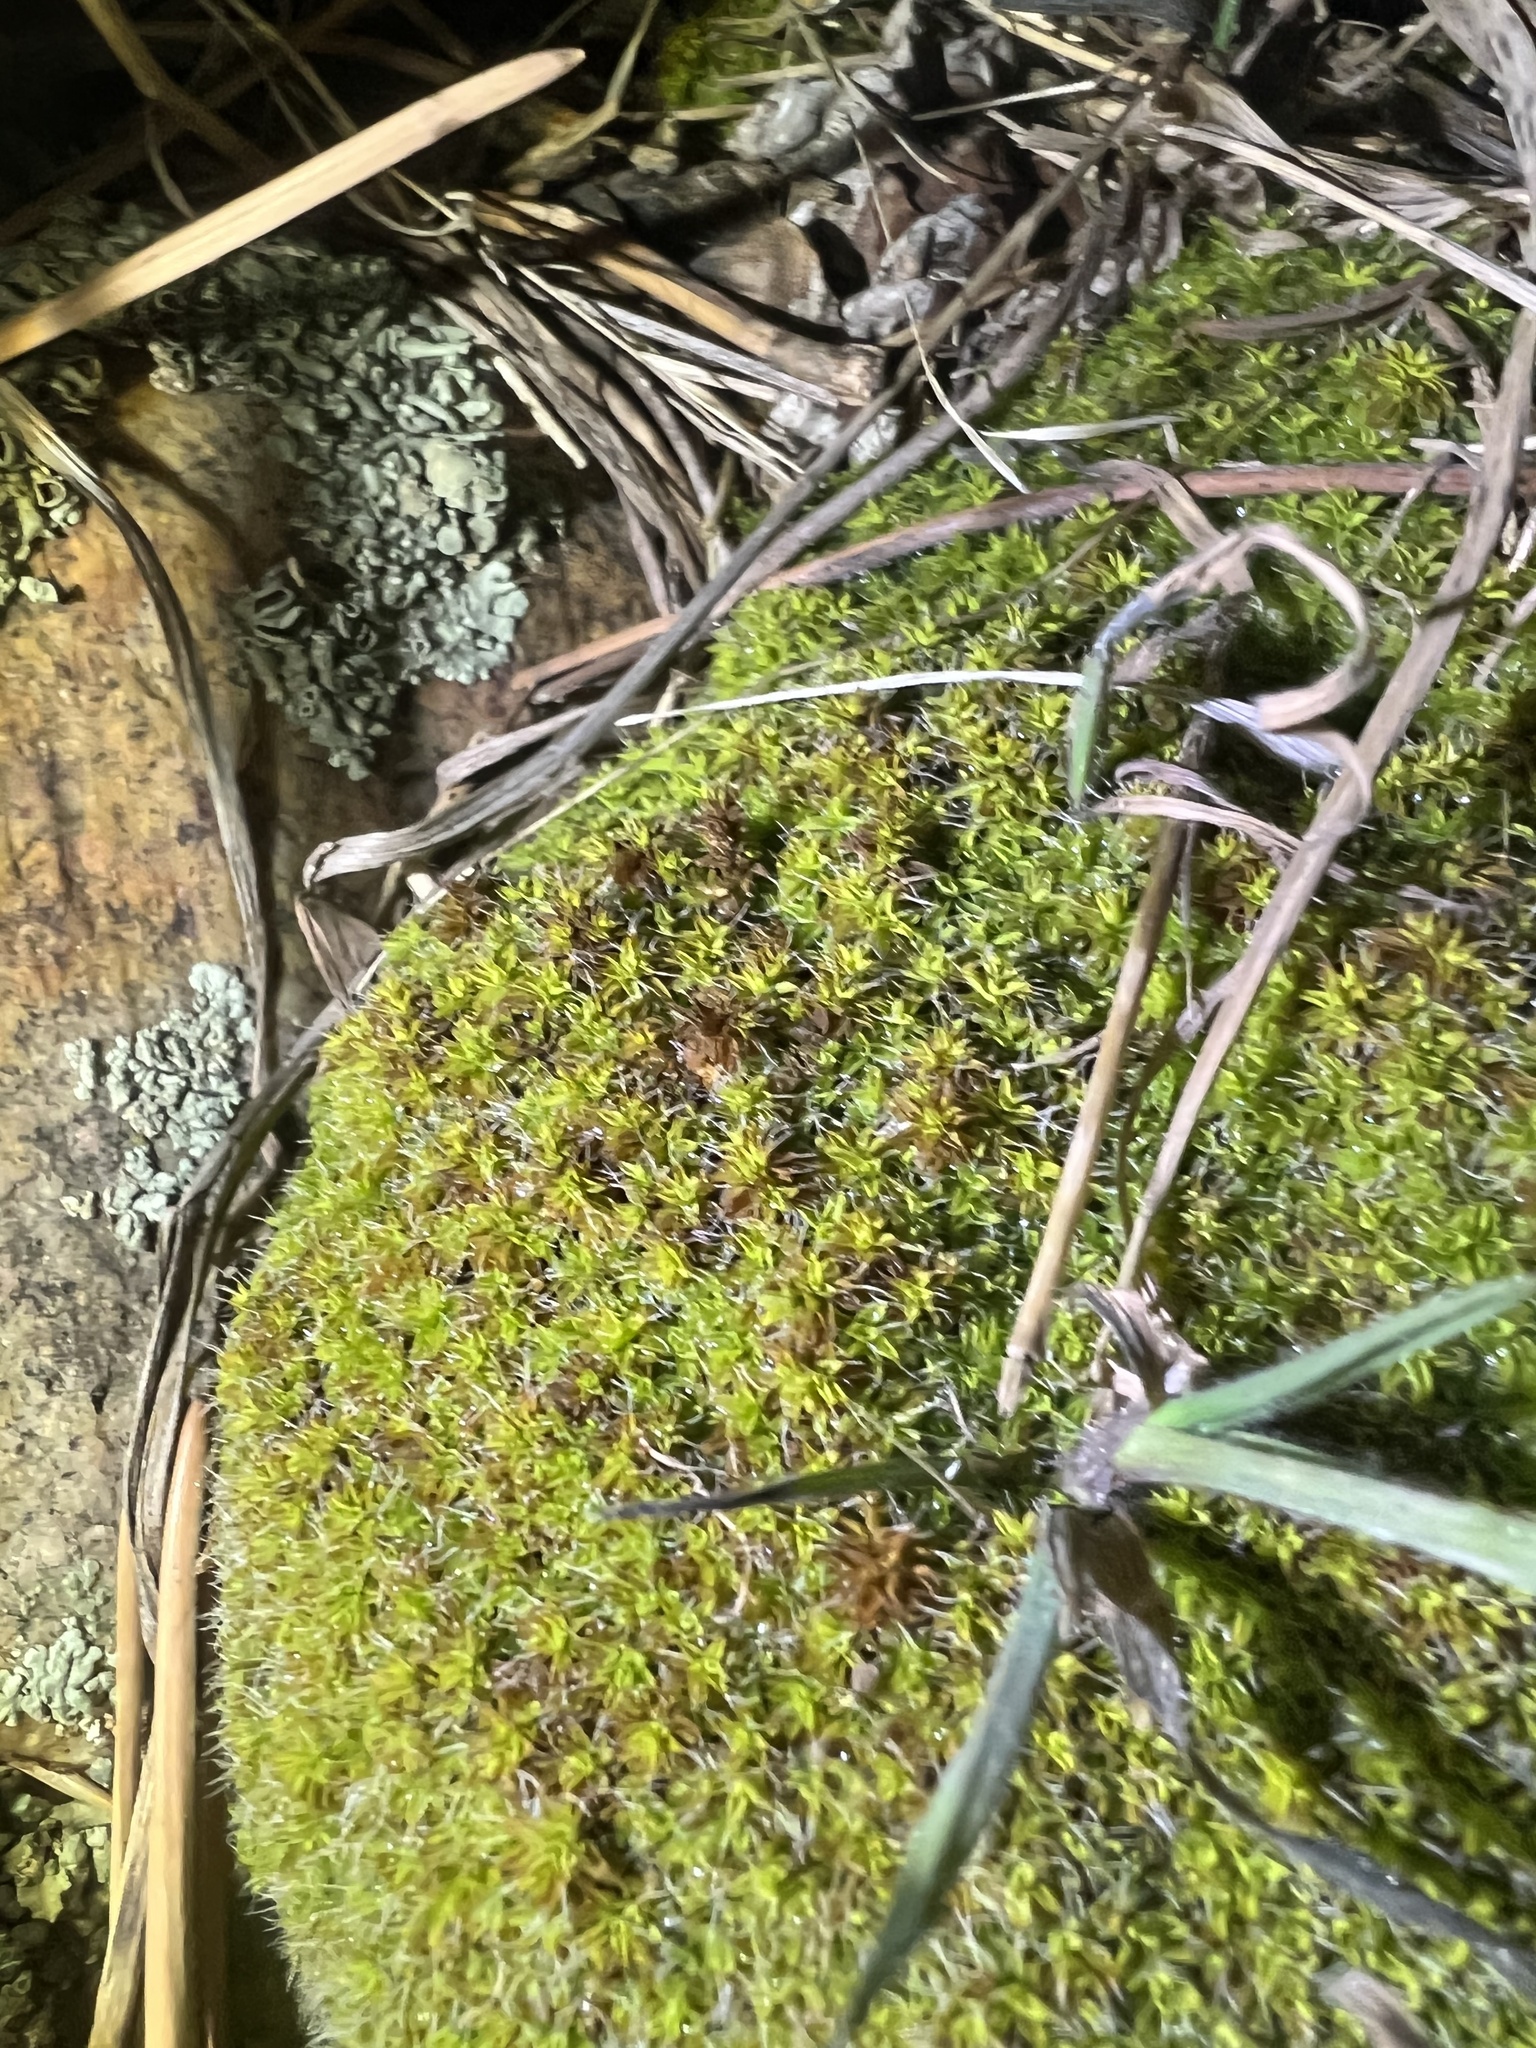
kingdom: Plantae
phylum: Bryophyta
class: Bryopsida
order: Pottiales
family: Pottiaceae
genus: Syntrichia
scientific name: Syntrichia ruralis
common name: Sidewalk screw moss
